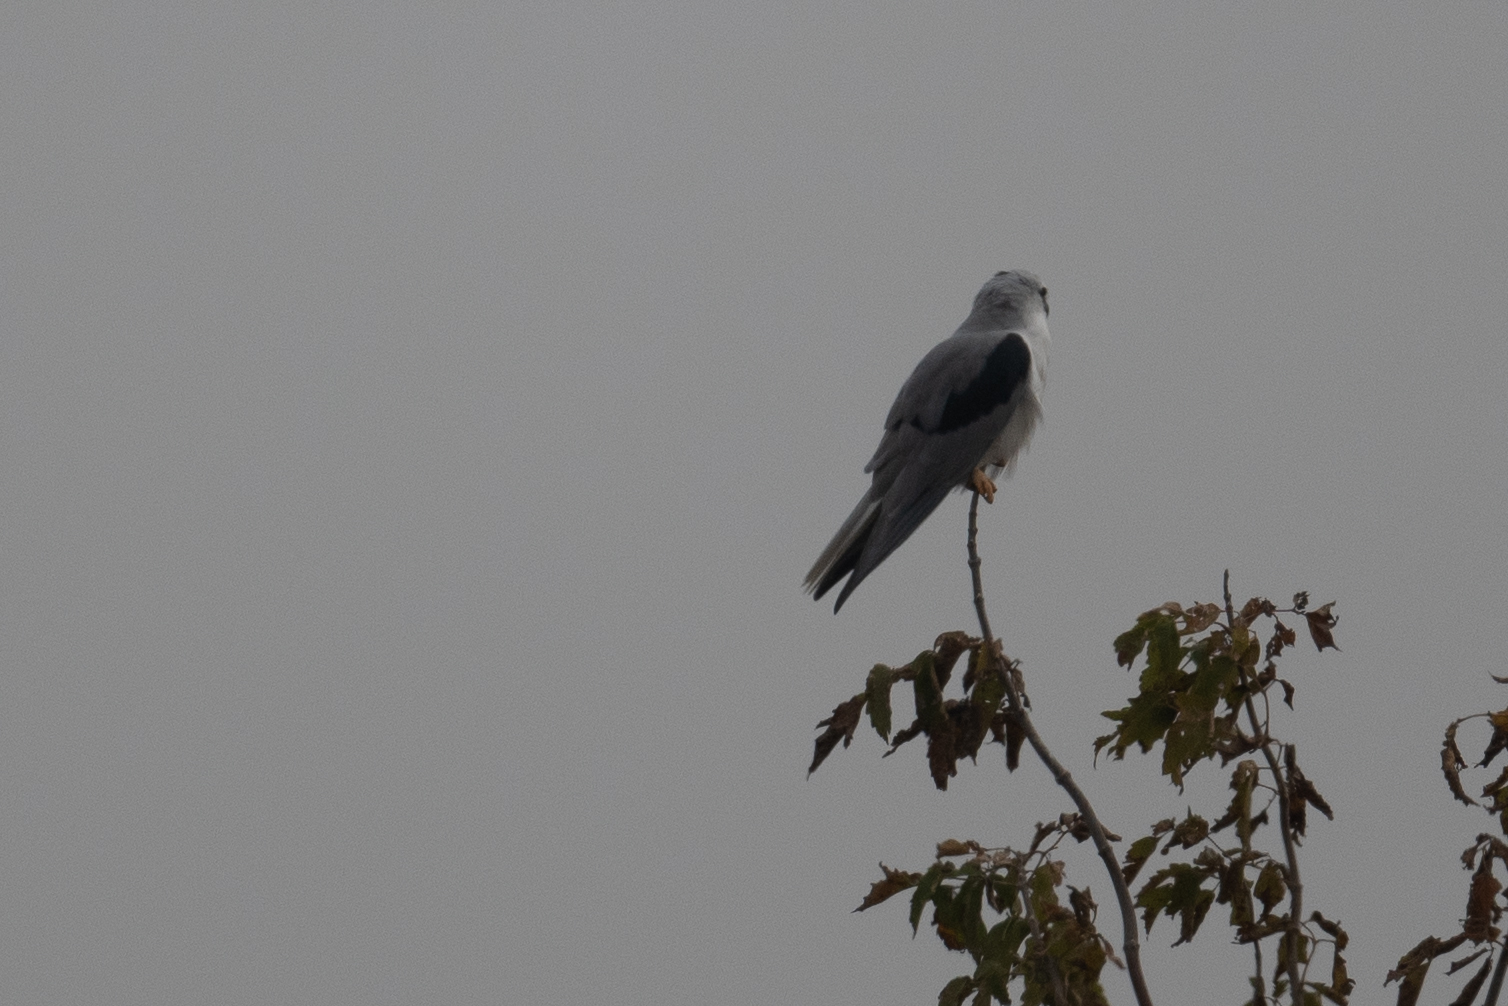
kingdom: Animalia
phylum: Chordata
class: Aves
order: Accipitriformes
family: Accipitridae
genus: Elanus
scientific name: Elanus leucurus
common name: White-tailed kite
